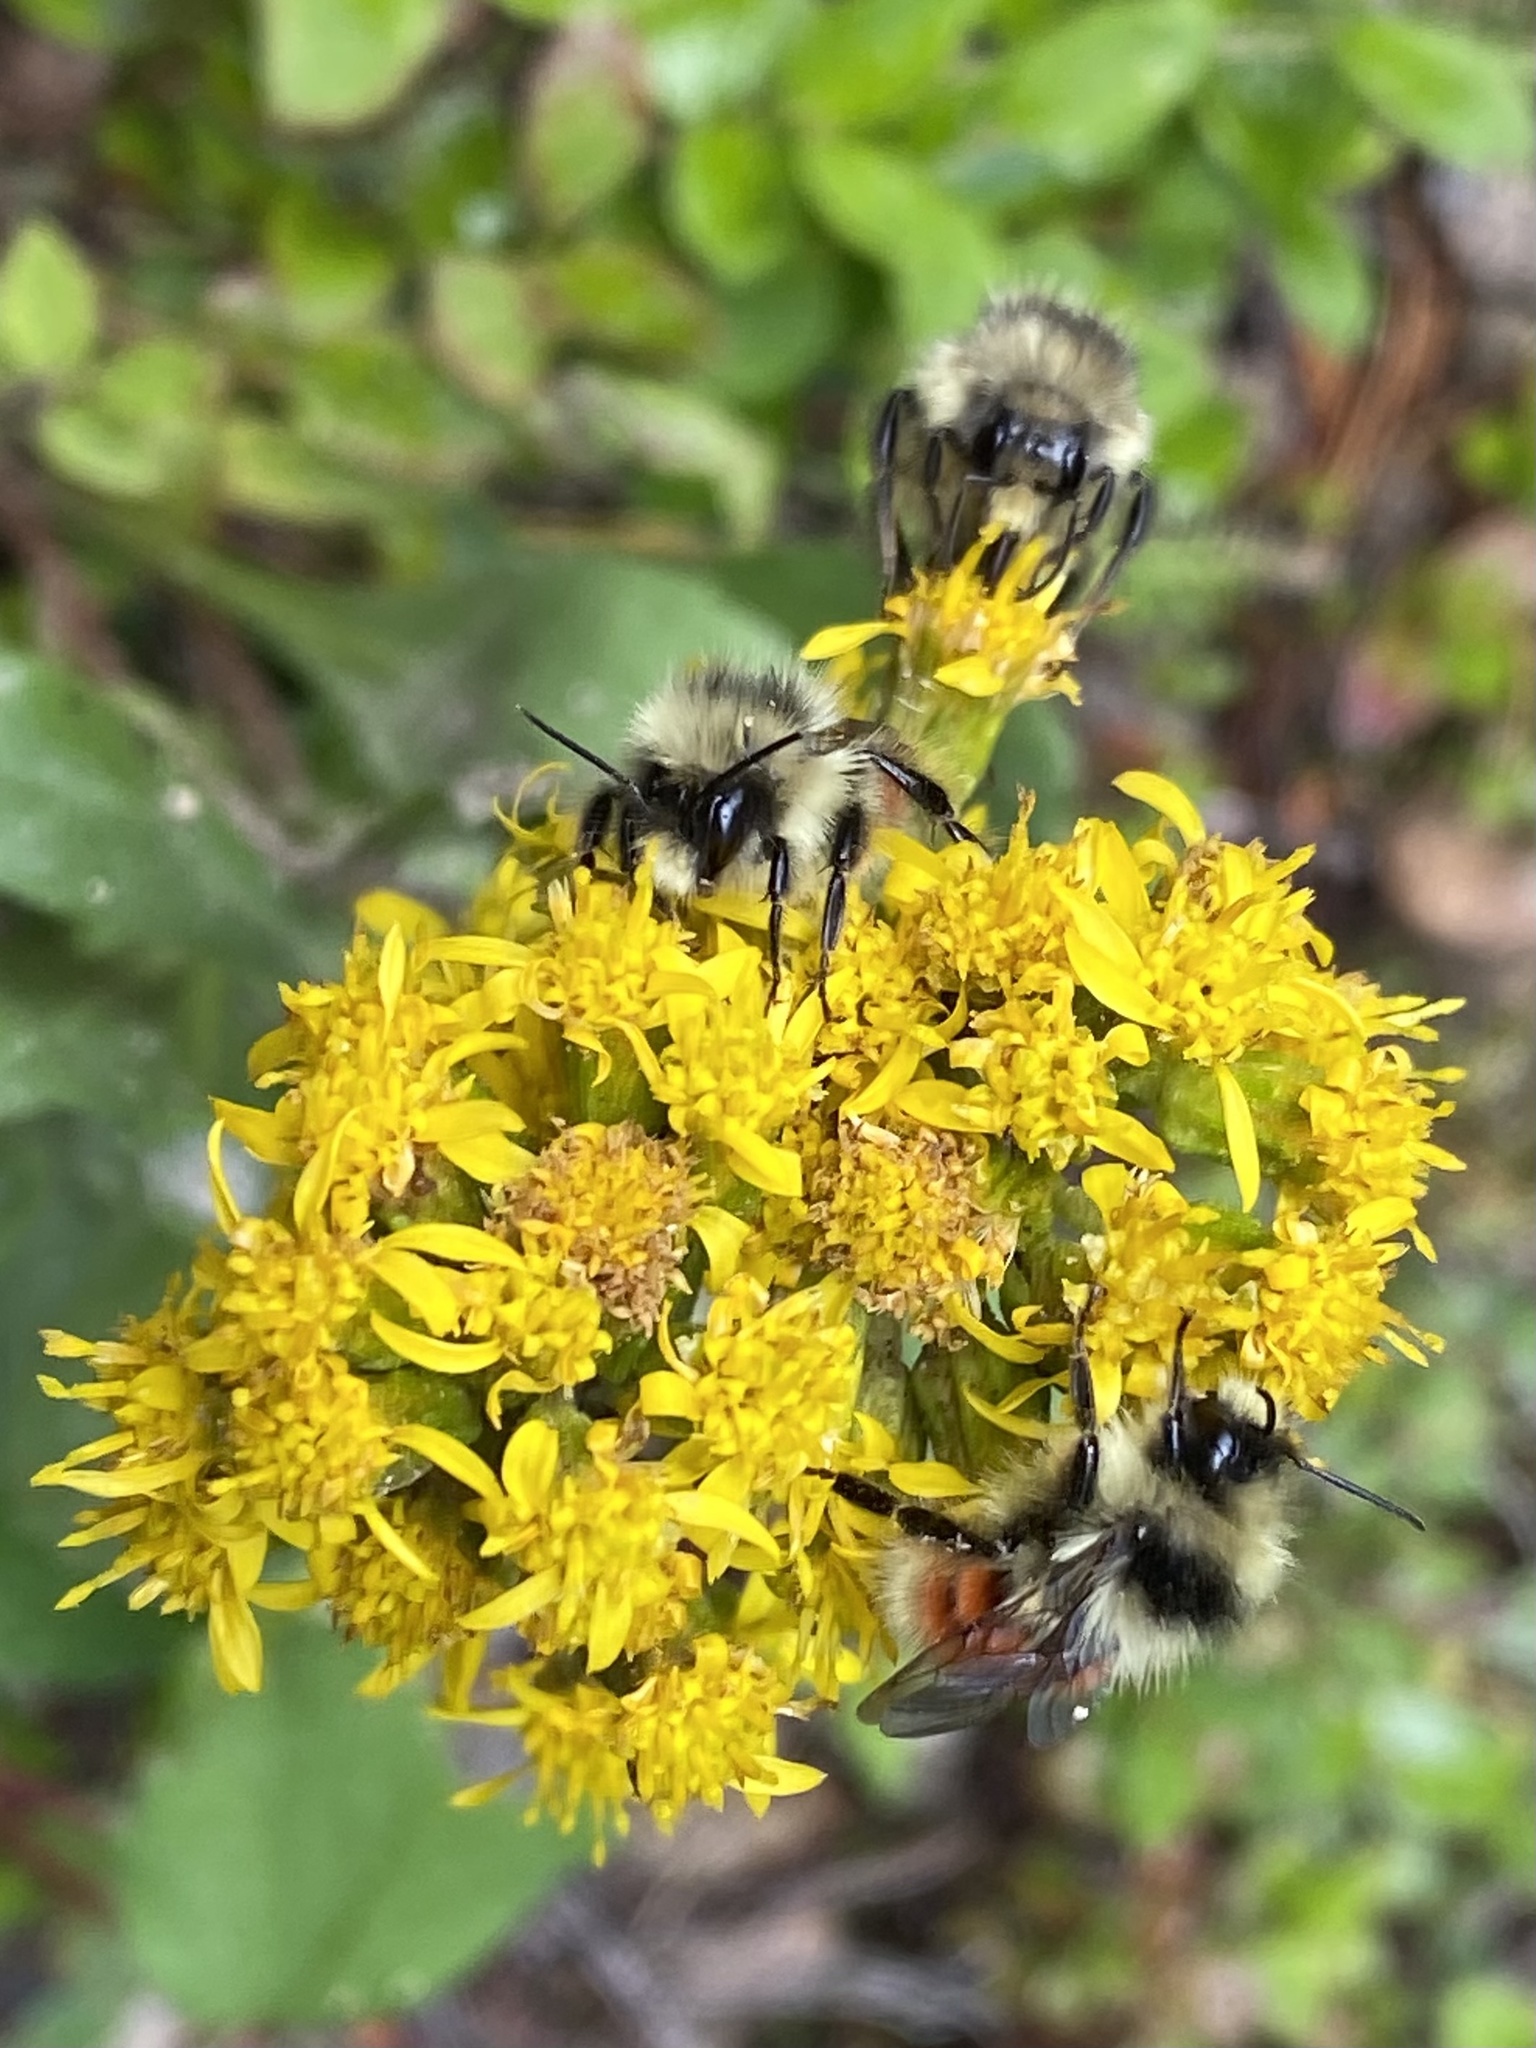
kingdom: Animalia
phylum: Arthropoda
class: Insecta
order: Hymenoptera
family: Apidae
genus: Bombus
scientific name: Bombus
